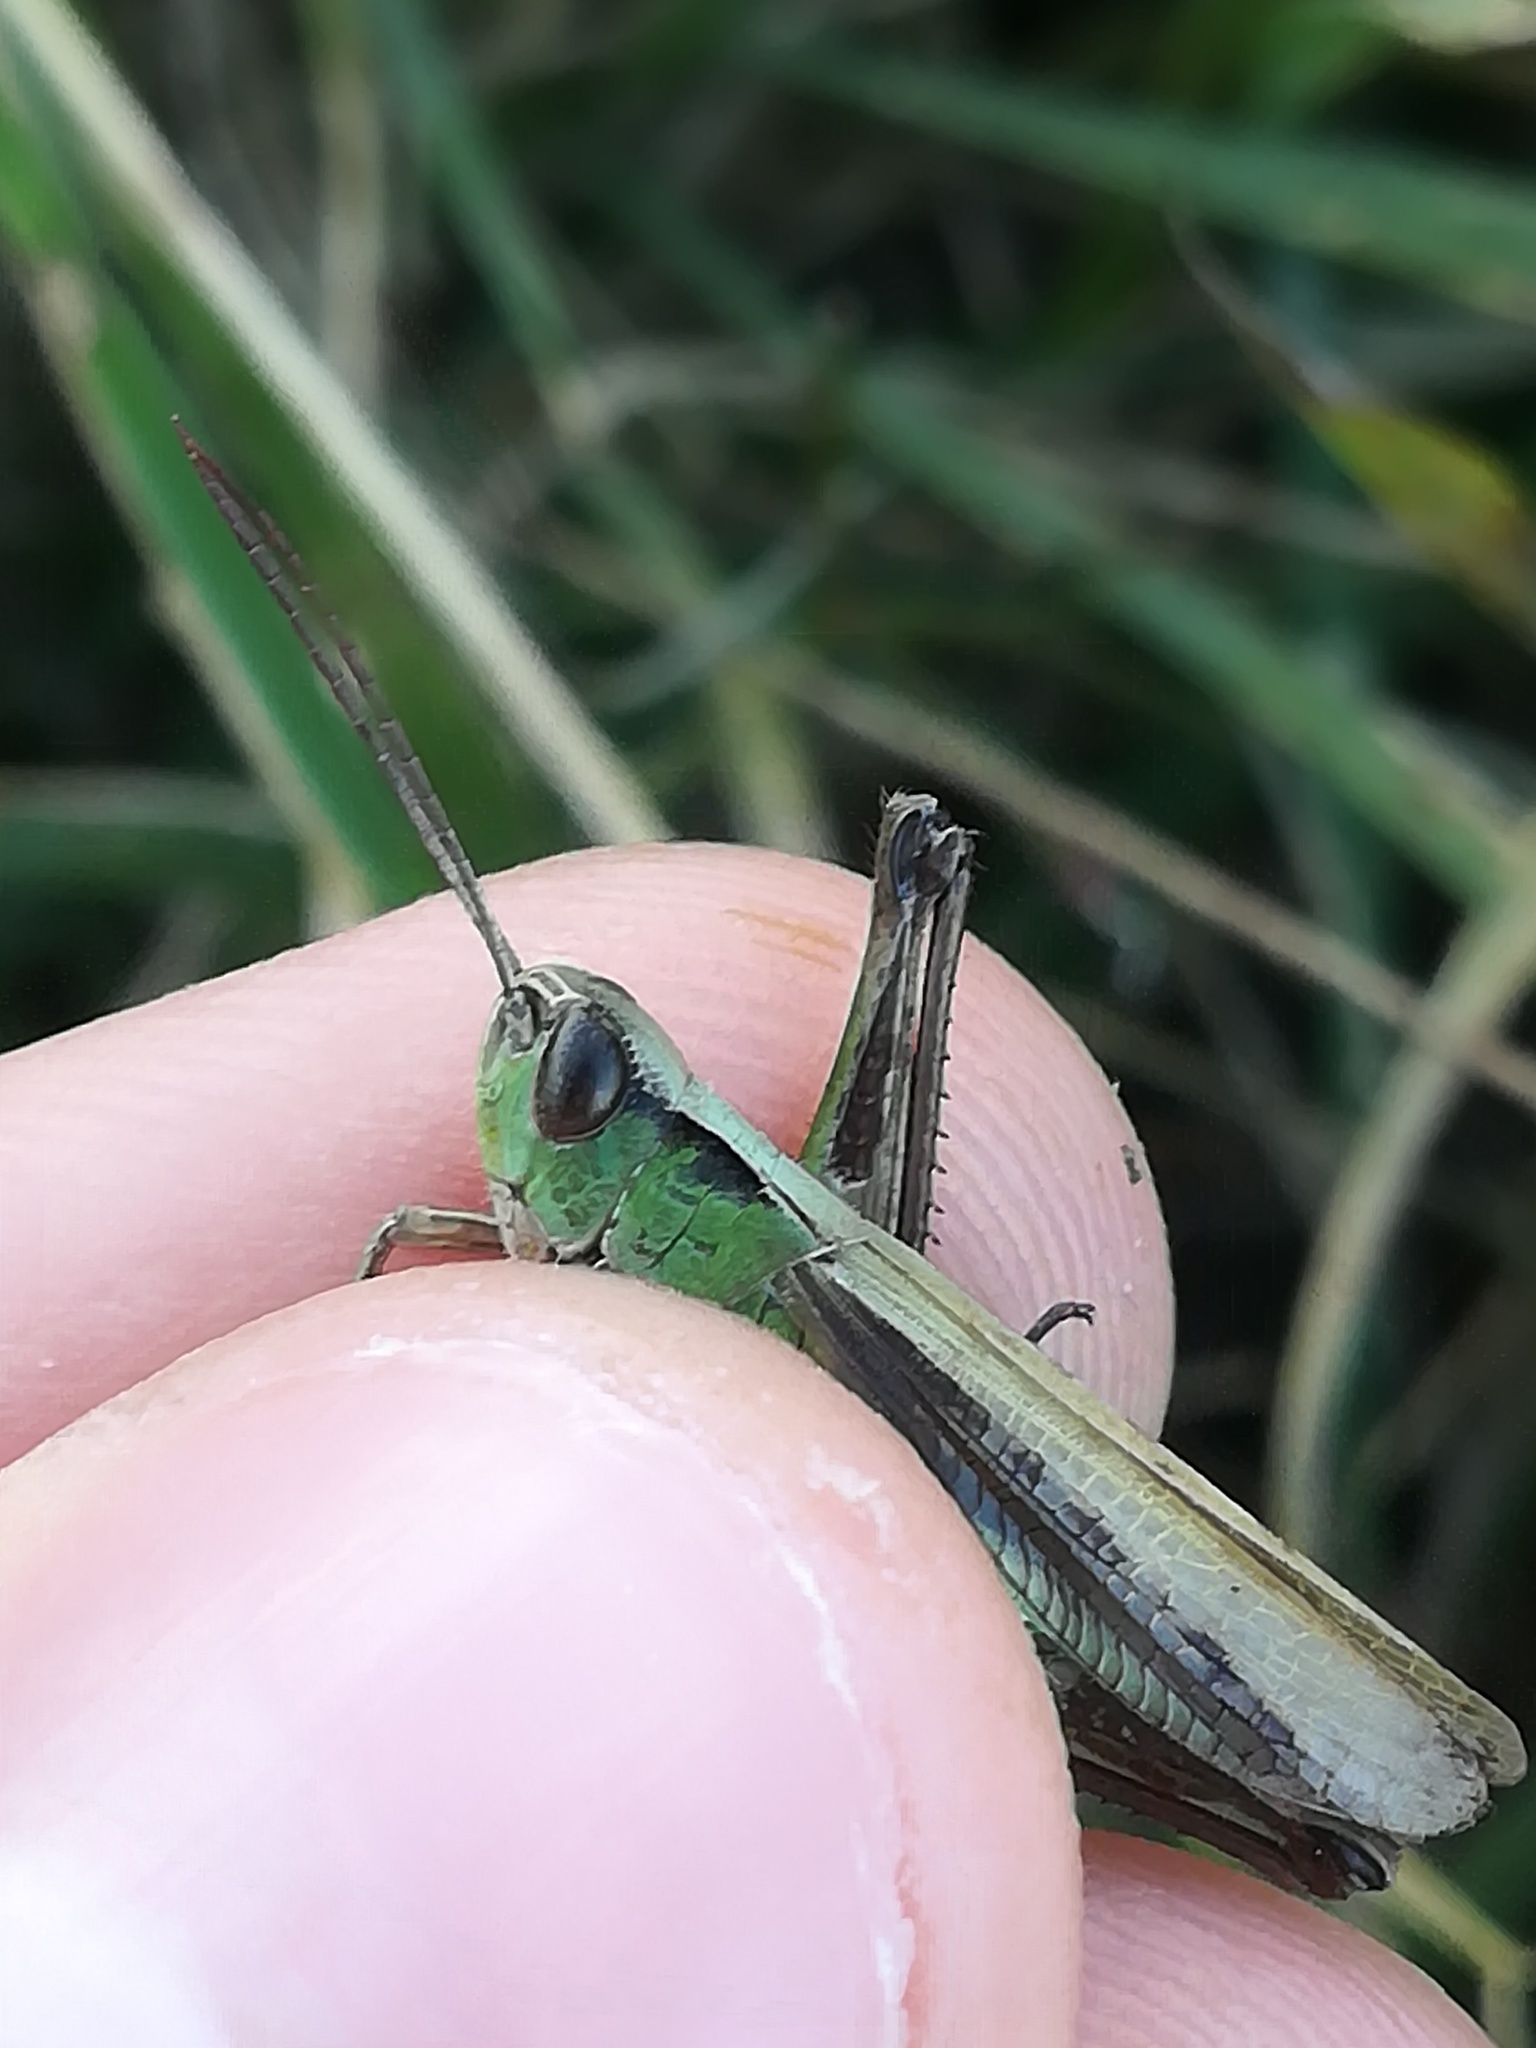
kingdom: Animalia
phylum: Arthropoda
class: Insecta
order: Orthoptera
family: Acrididae
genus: Chorthippus
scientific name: Chorthippus dorsatus
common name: Steppe grasshopper
